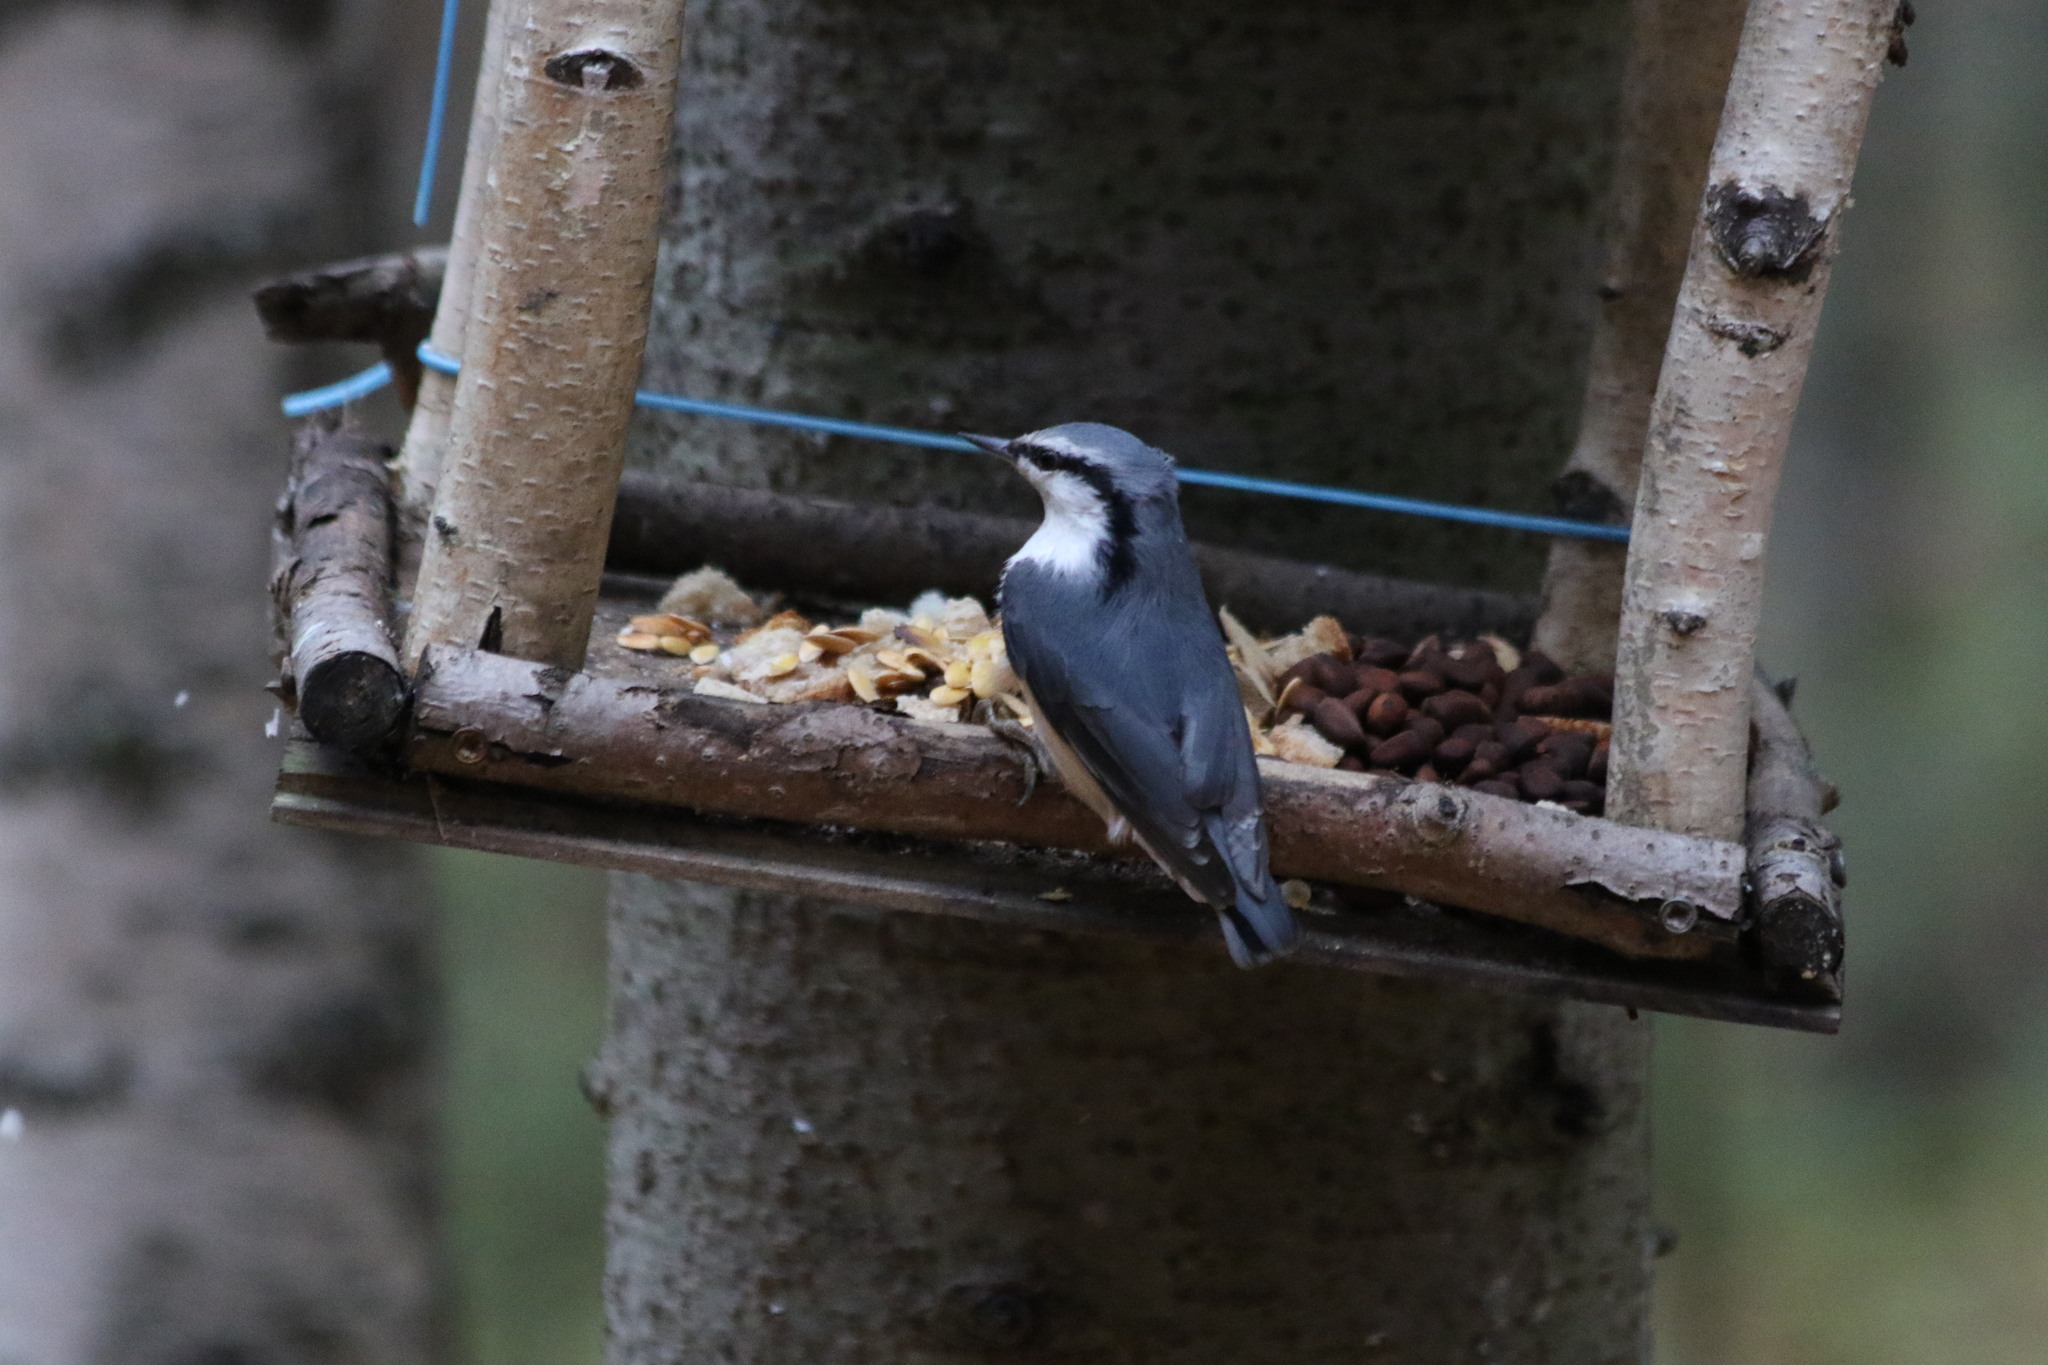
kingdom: Animalia
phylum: Chordata
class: Aves
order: Passeriformes
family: Sittidae
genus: Sitta
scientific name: Sitta europaea
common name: Eurasian nuthatch
